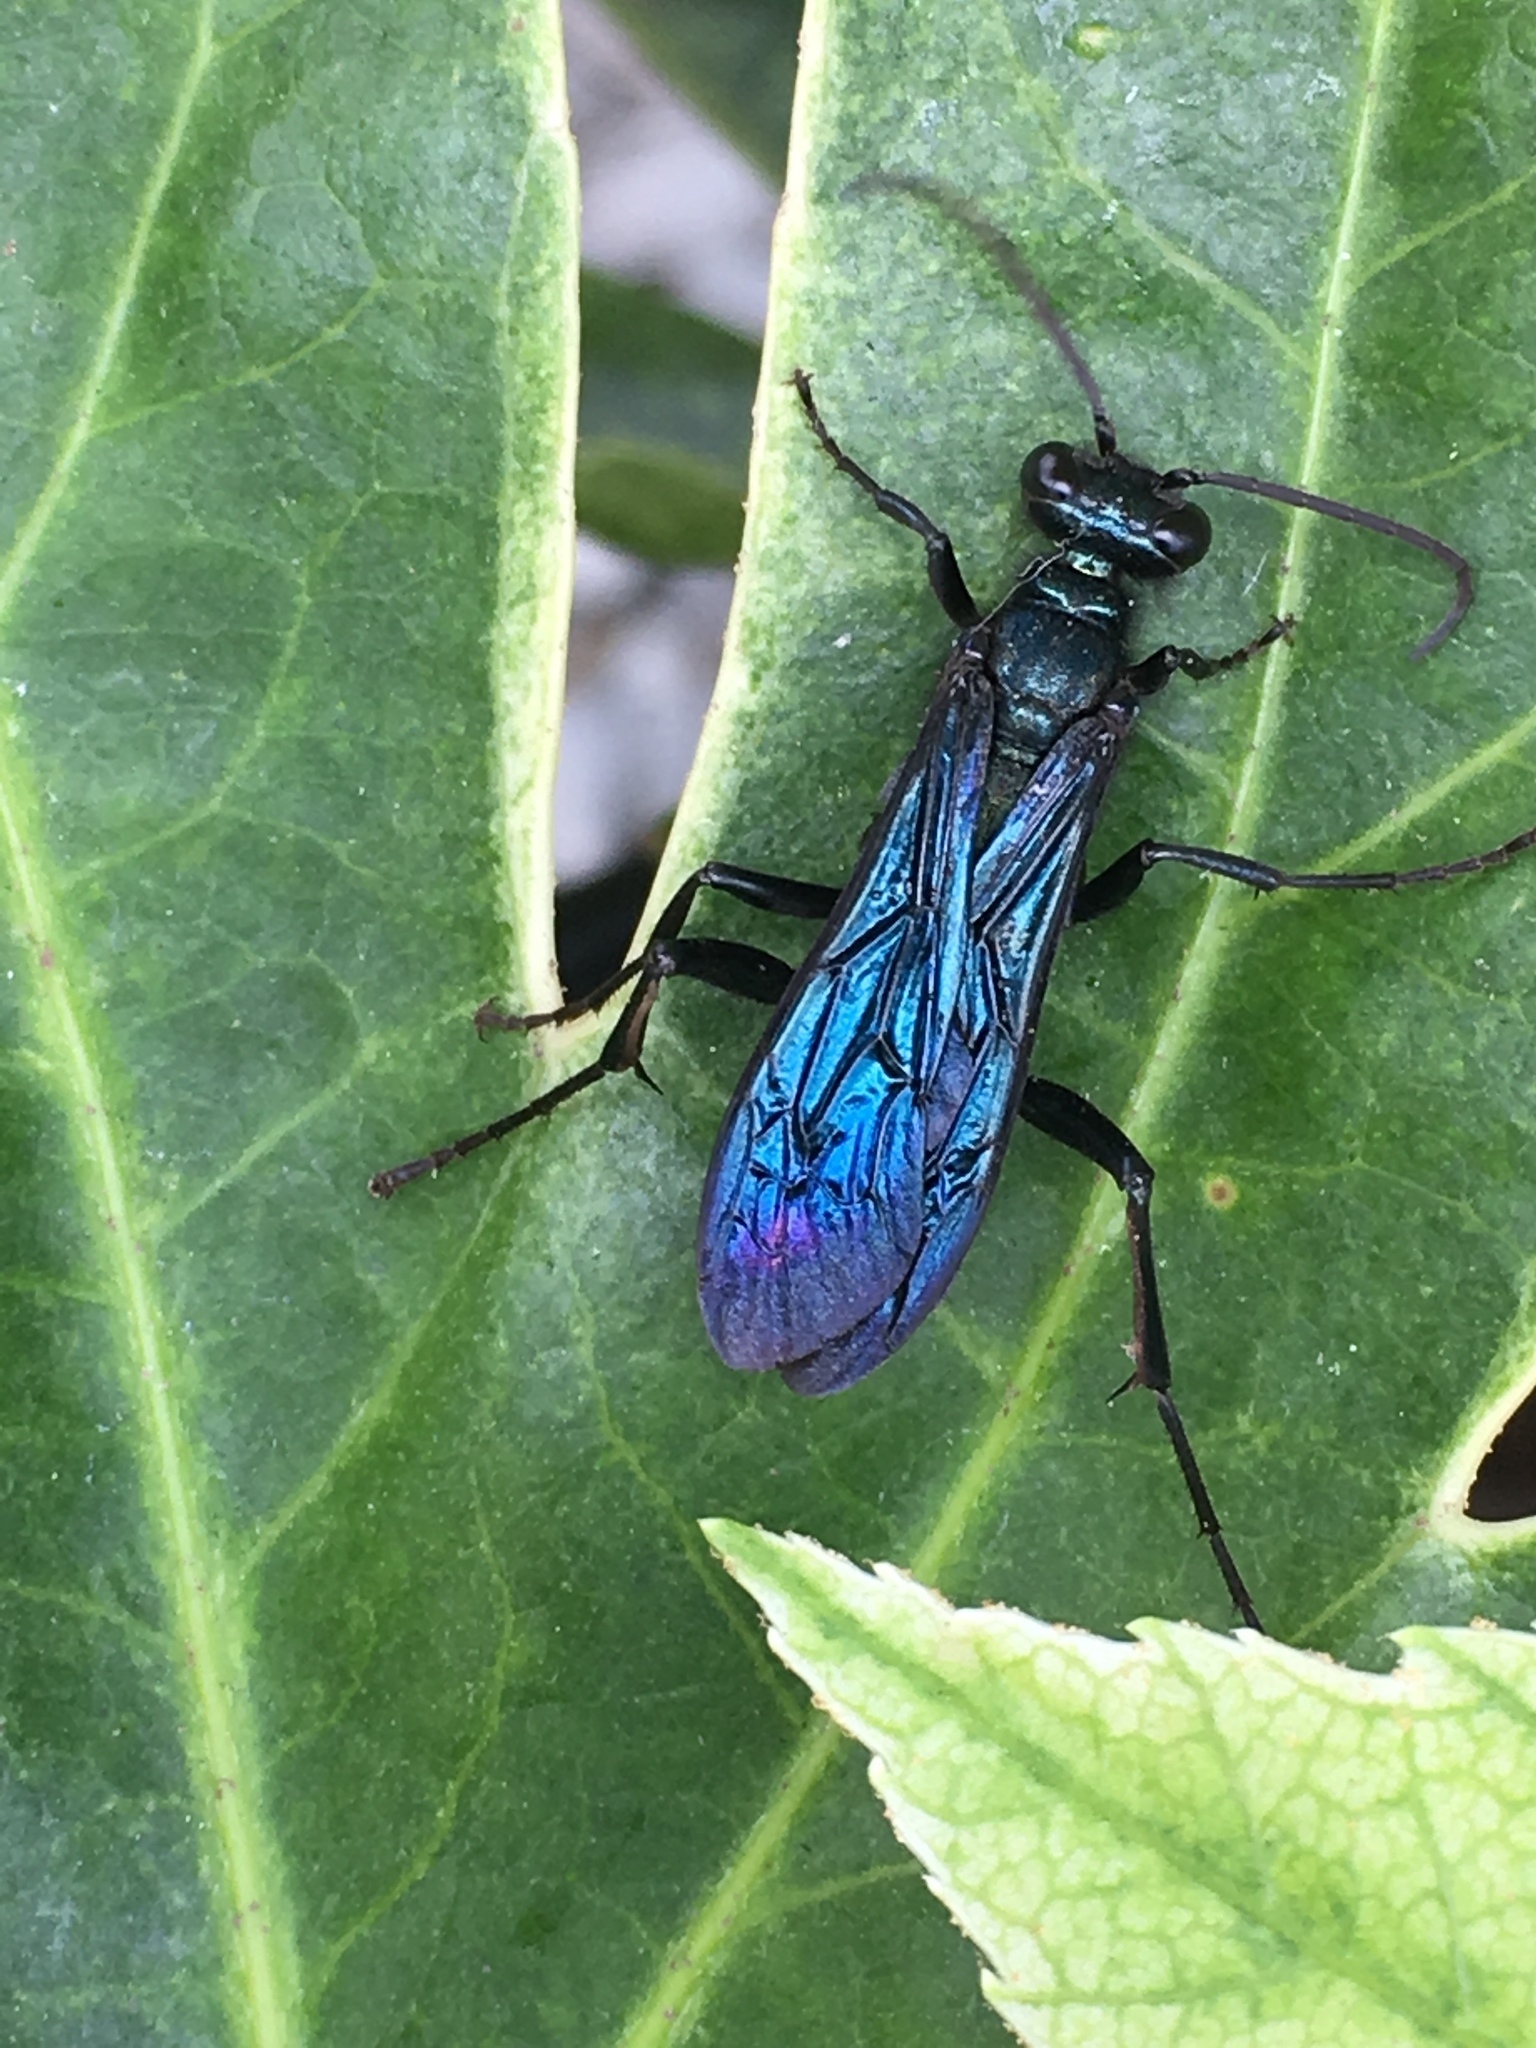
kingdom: Animalia
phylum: Arthropoda
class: Insecta
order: Hymenoptera
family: Sphecidae
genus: Chalybion
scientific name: Chalybion californicum
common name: Mud dauber
